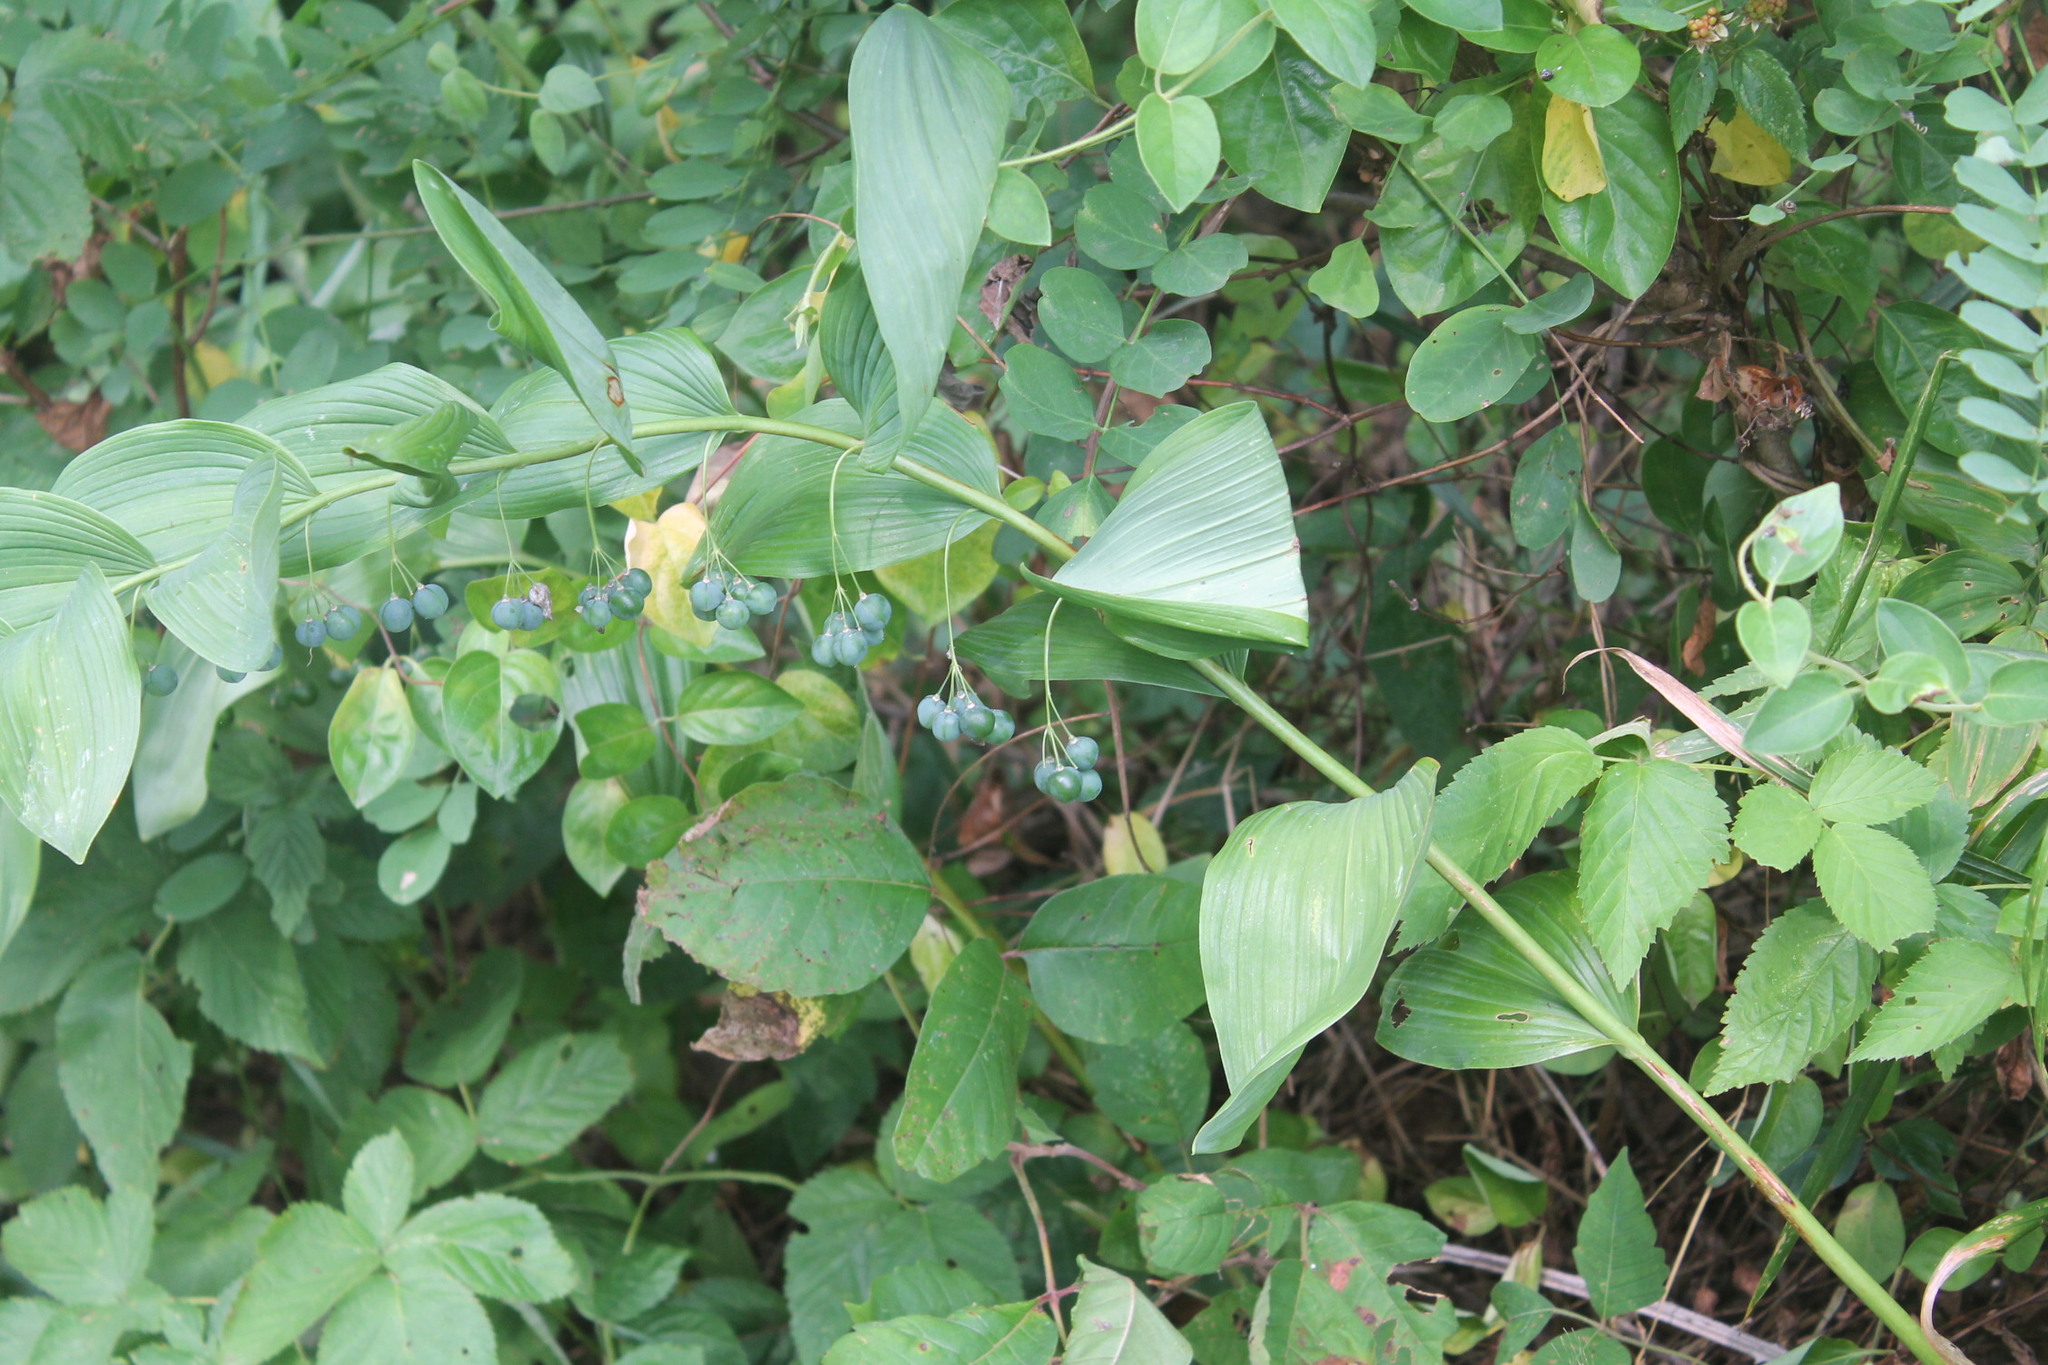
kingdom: Plantae
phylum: Tracheophyta
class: Liliopsida
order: Asparagales
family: Asparagaceae
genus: Polygonatum
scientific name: Polygonatum biflorum
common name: American solomon's-seal
